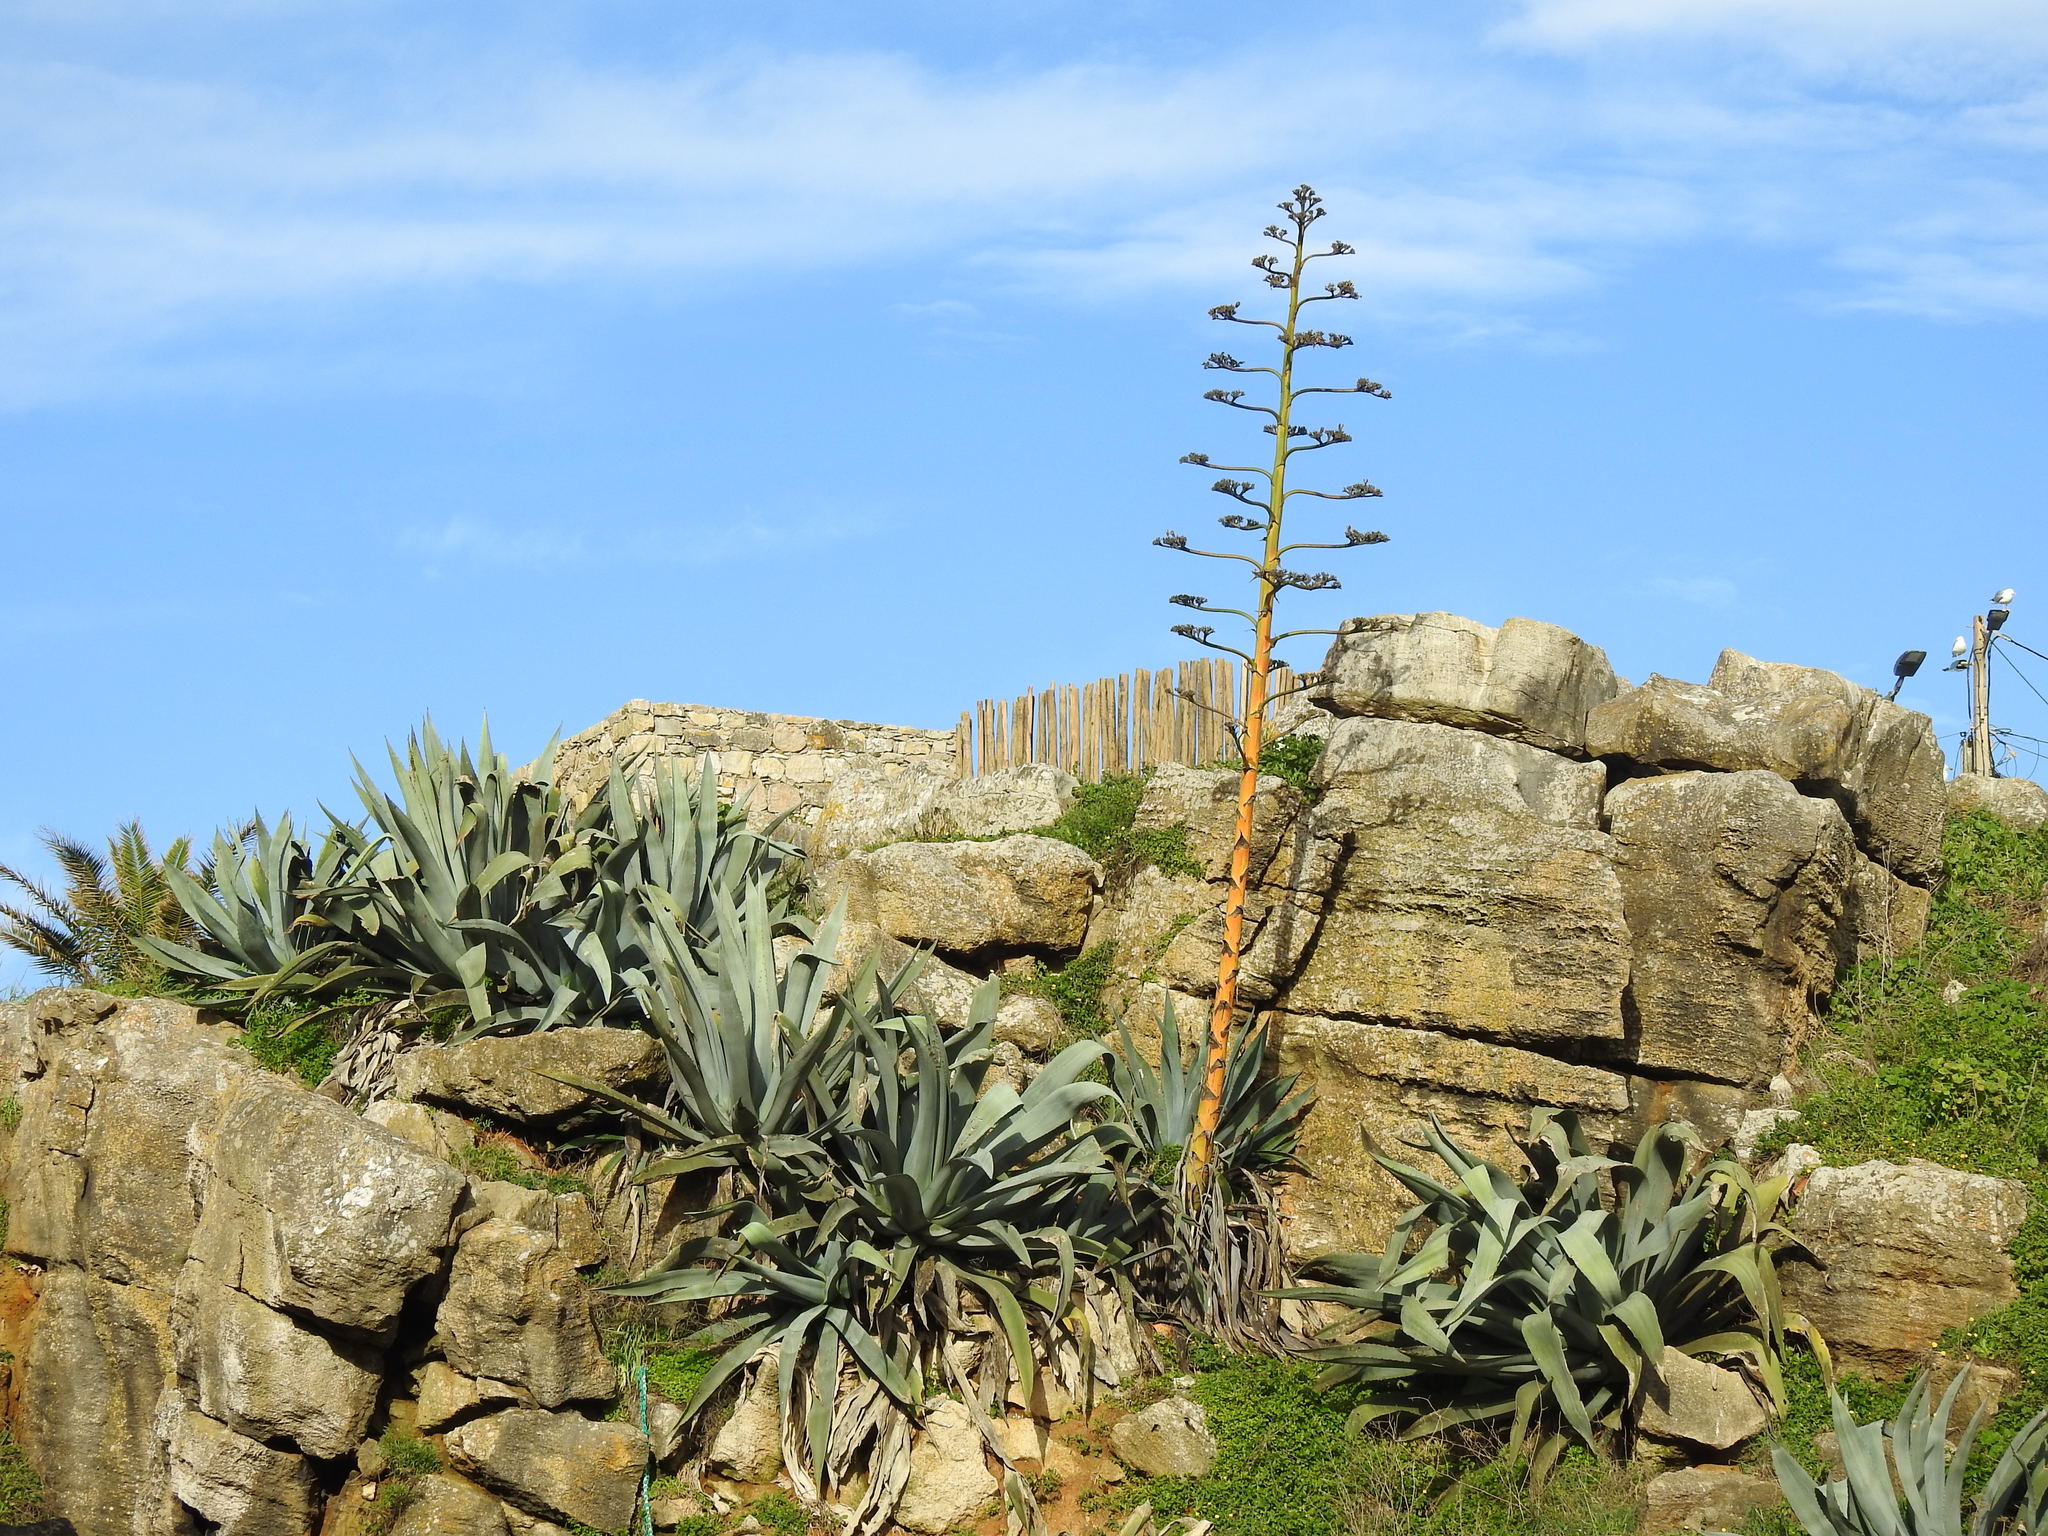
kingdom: Plantae
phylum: Tracheophyta
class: Liliopsida
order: Asparagales
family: Asparagaceae
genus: Agave
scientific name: Agave americana
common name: Centuryplant
